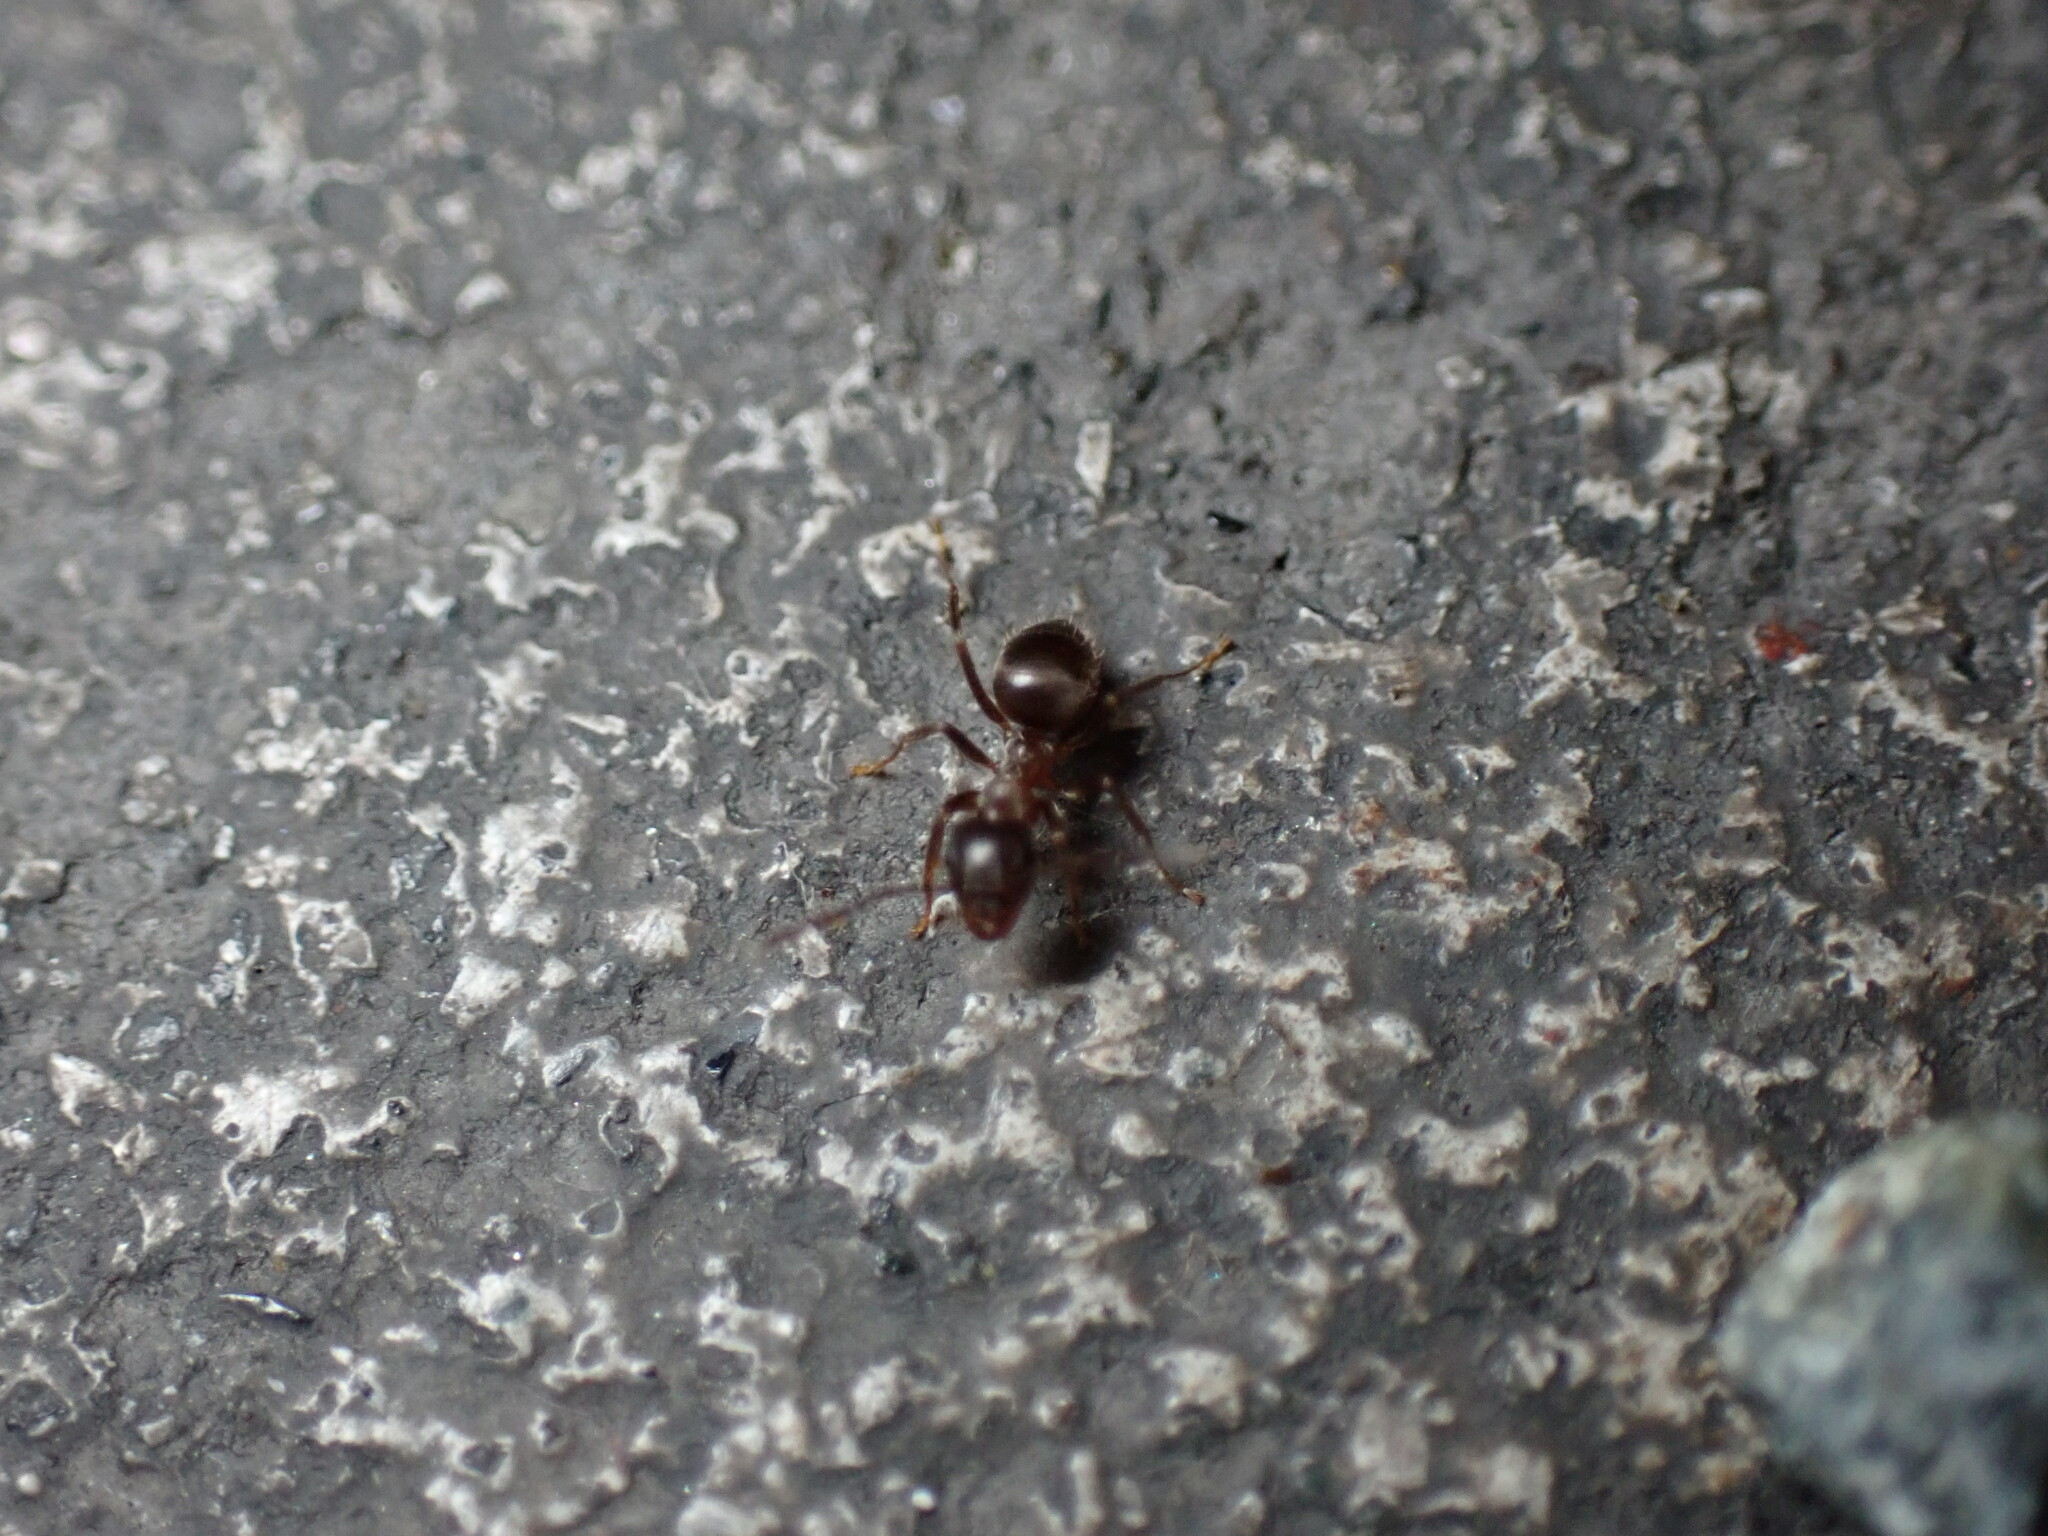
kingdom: Animalia
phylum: Arthropoda
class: Insecta
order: Hymenoptera
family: Formicidae
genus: Lasius
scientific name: Lasius japonicus
